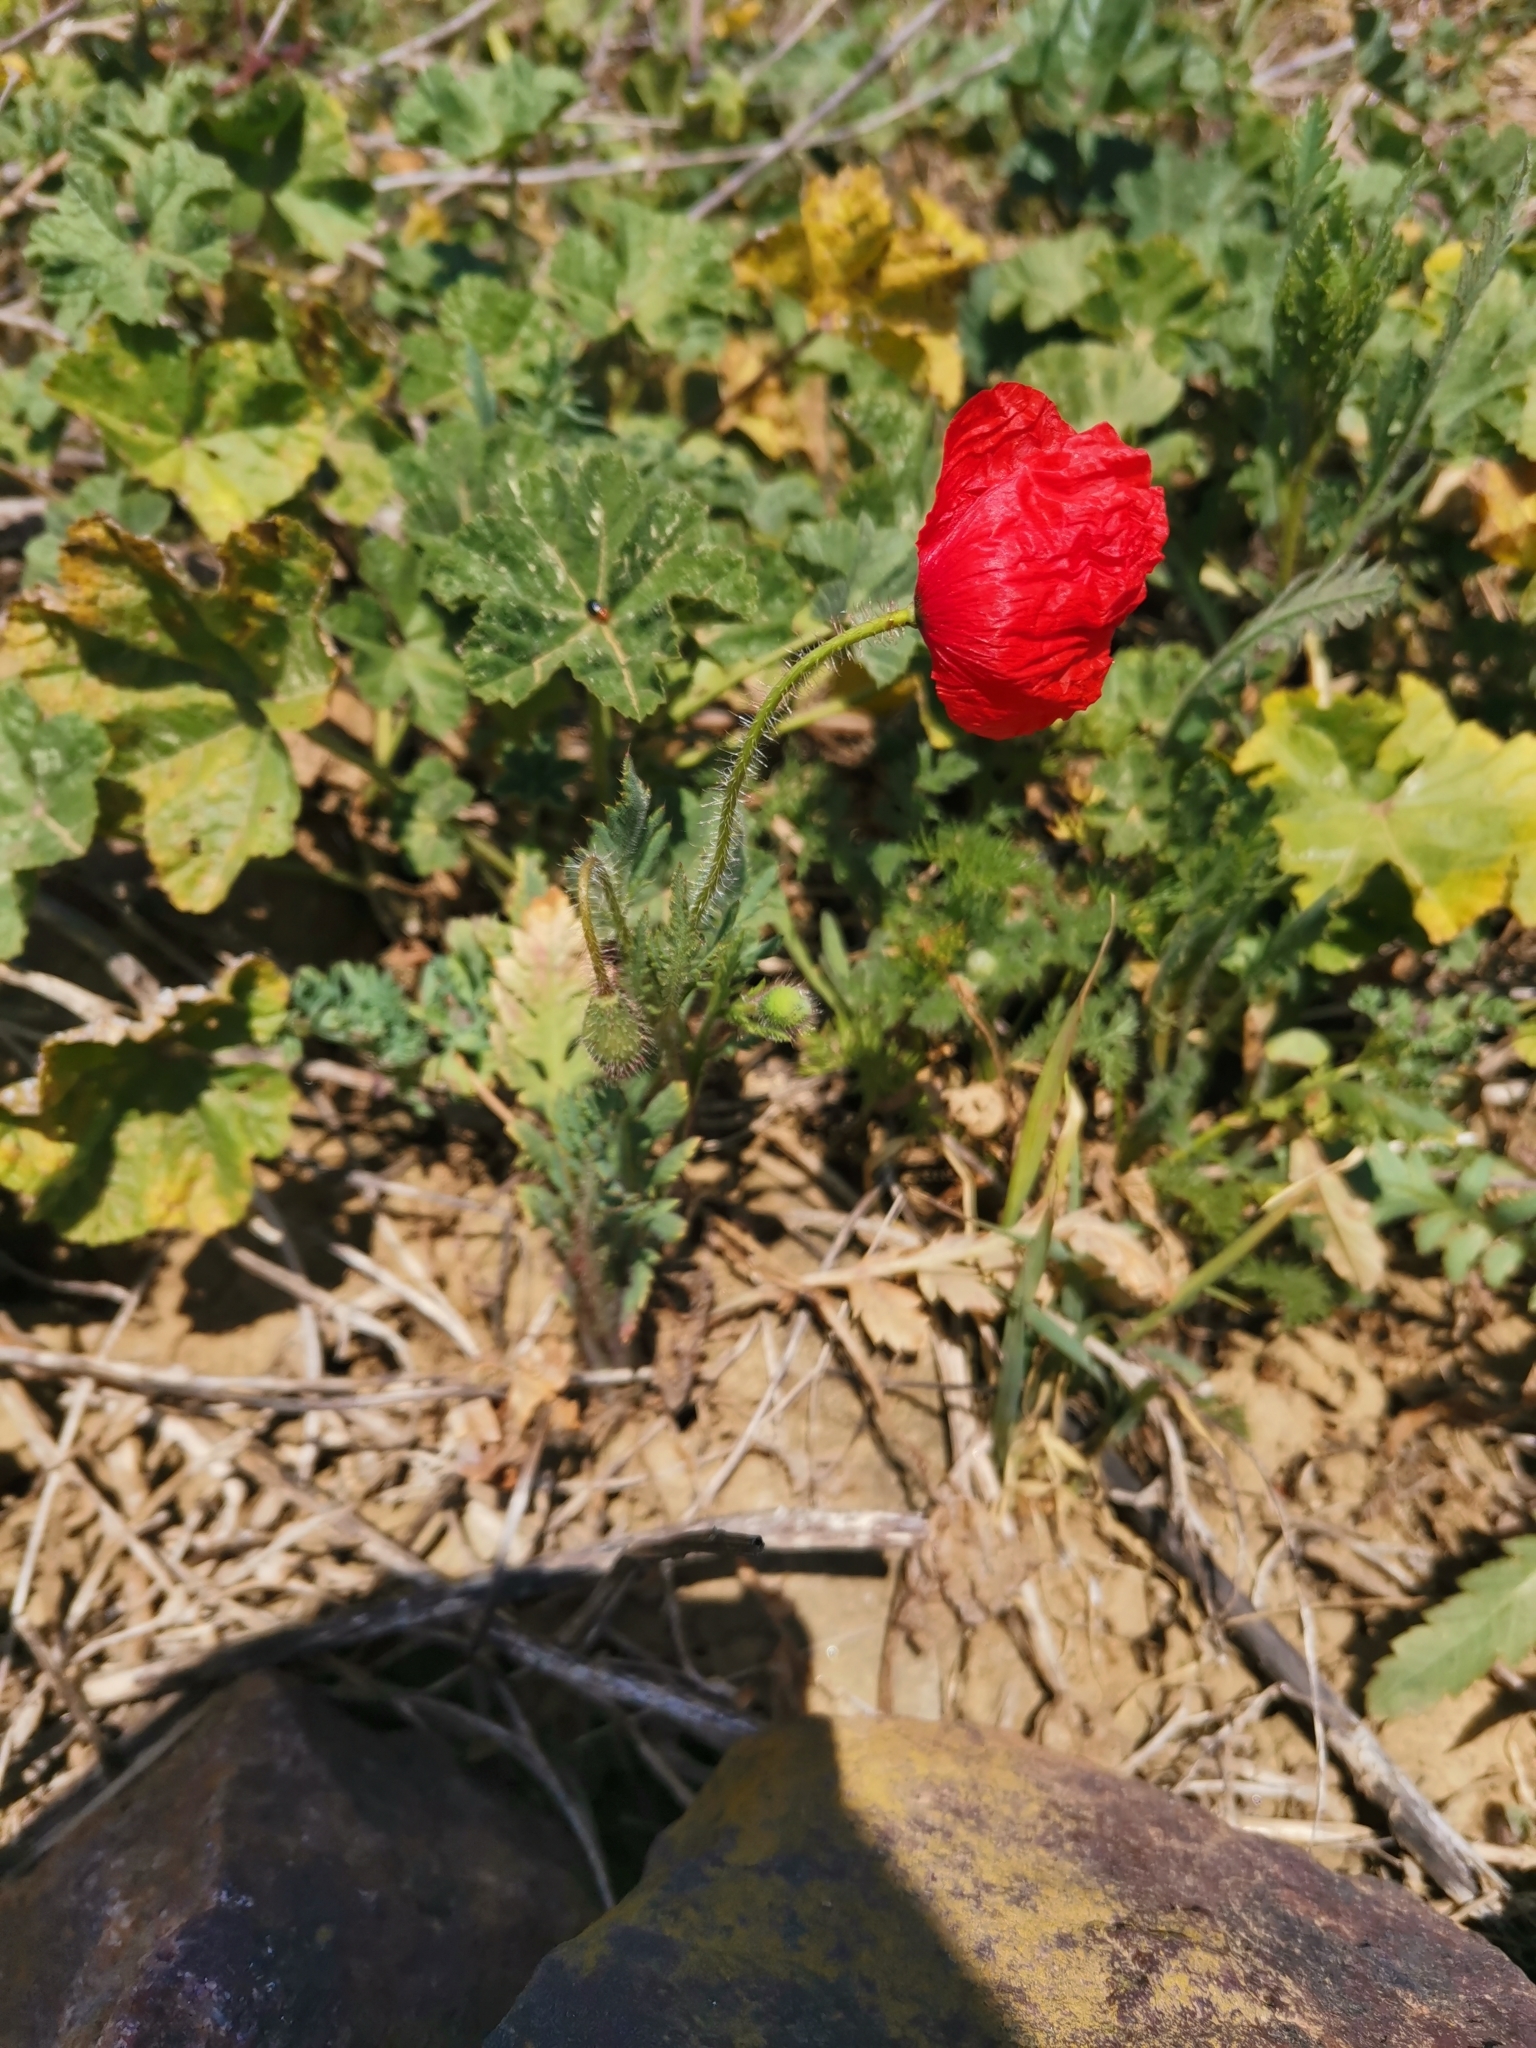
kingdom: Plantae
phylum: Tracheophyta
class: Magnoliopsida
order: Ranunculales
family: Papaveraceae
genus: Papaver
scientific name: Papaver rhoeas
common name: Corn poppy
